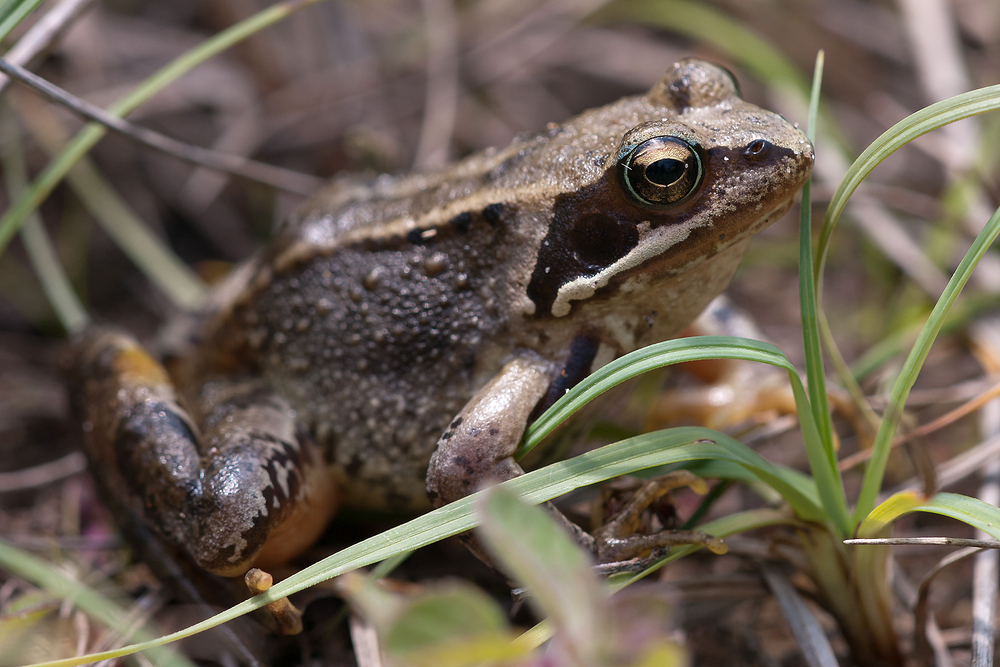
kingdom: Animalia
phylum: Chordata
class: Amphibia
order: Anura
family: Ranidae
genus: Rana
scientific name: Rana temporaria
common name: Common frog
